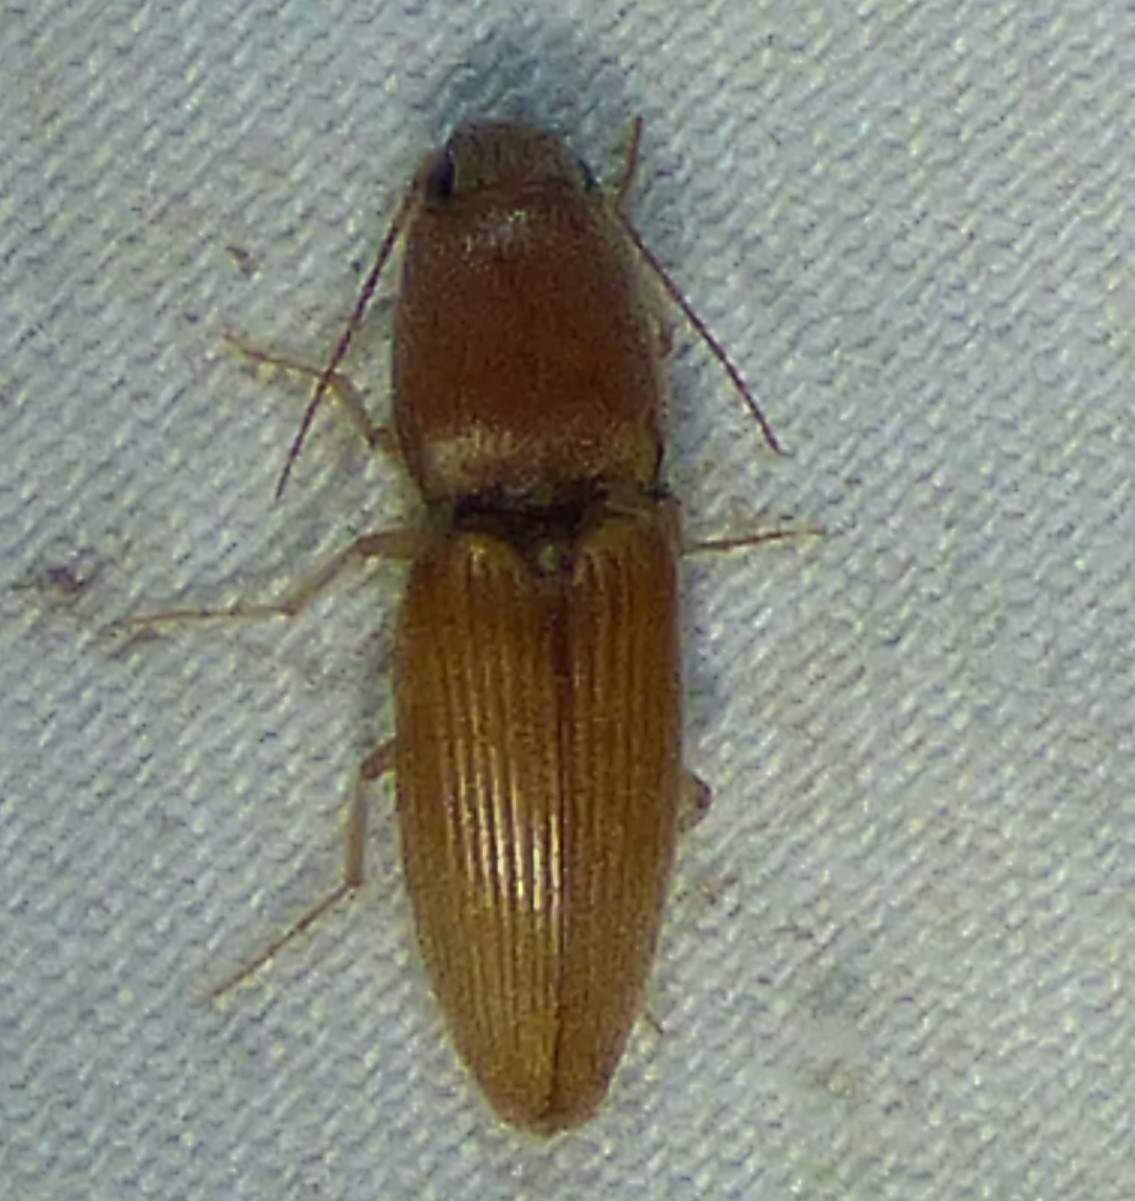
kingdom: Animalia
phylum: Arthropoda
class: Insecta
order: Coleoptera
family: Elateridae
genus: Monocrepidius
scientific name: Monocrepidius scissus
